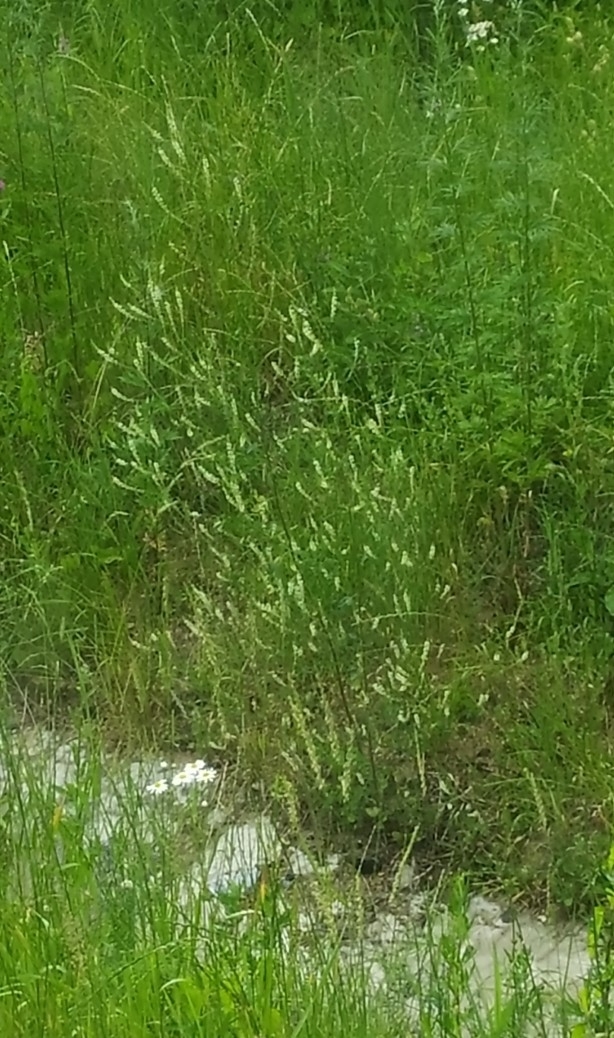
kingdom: Plantae
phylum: Tracheophyta
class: Magnoliopsida
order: Fabales
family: Fabaceae
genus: Melilotus
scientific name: Melilotus albus
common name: White melilot
